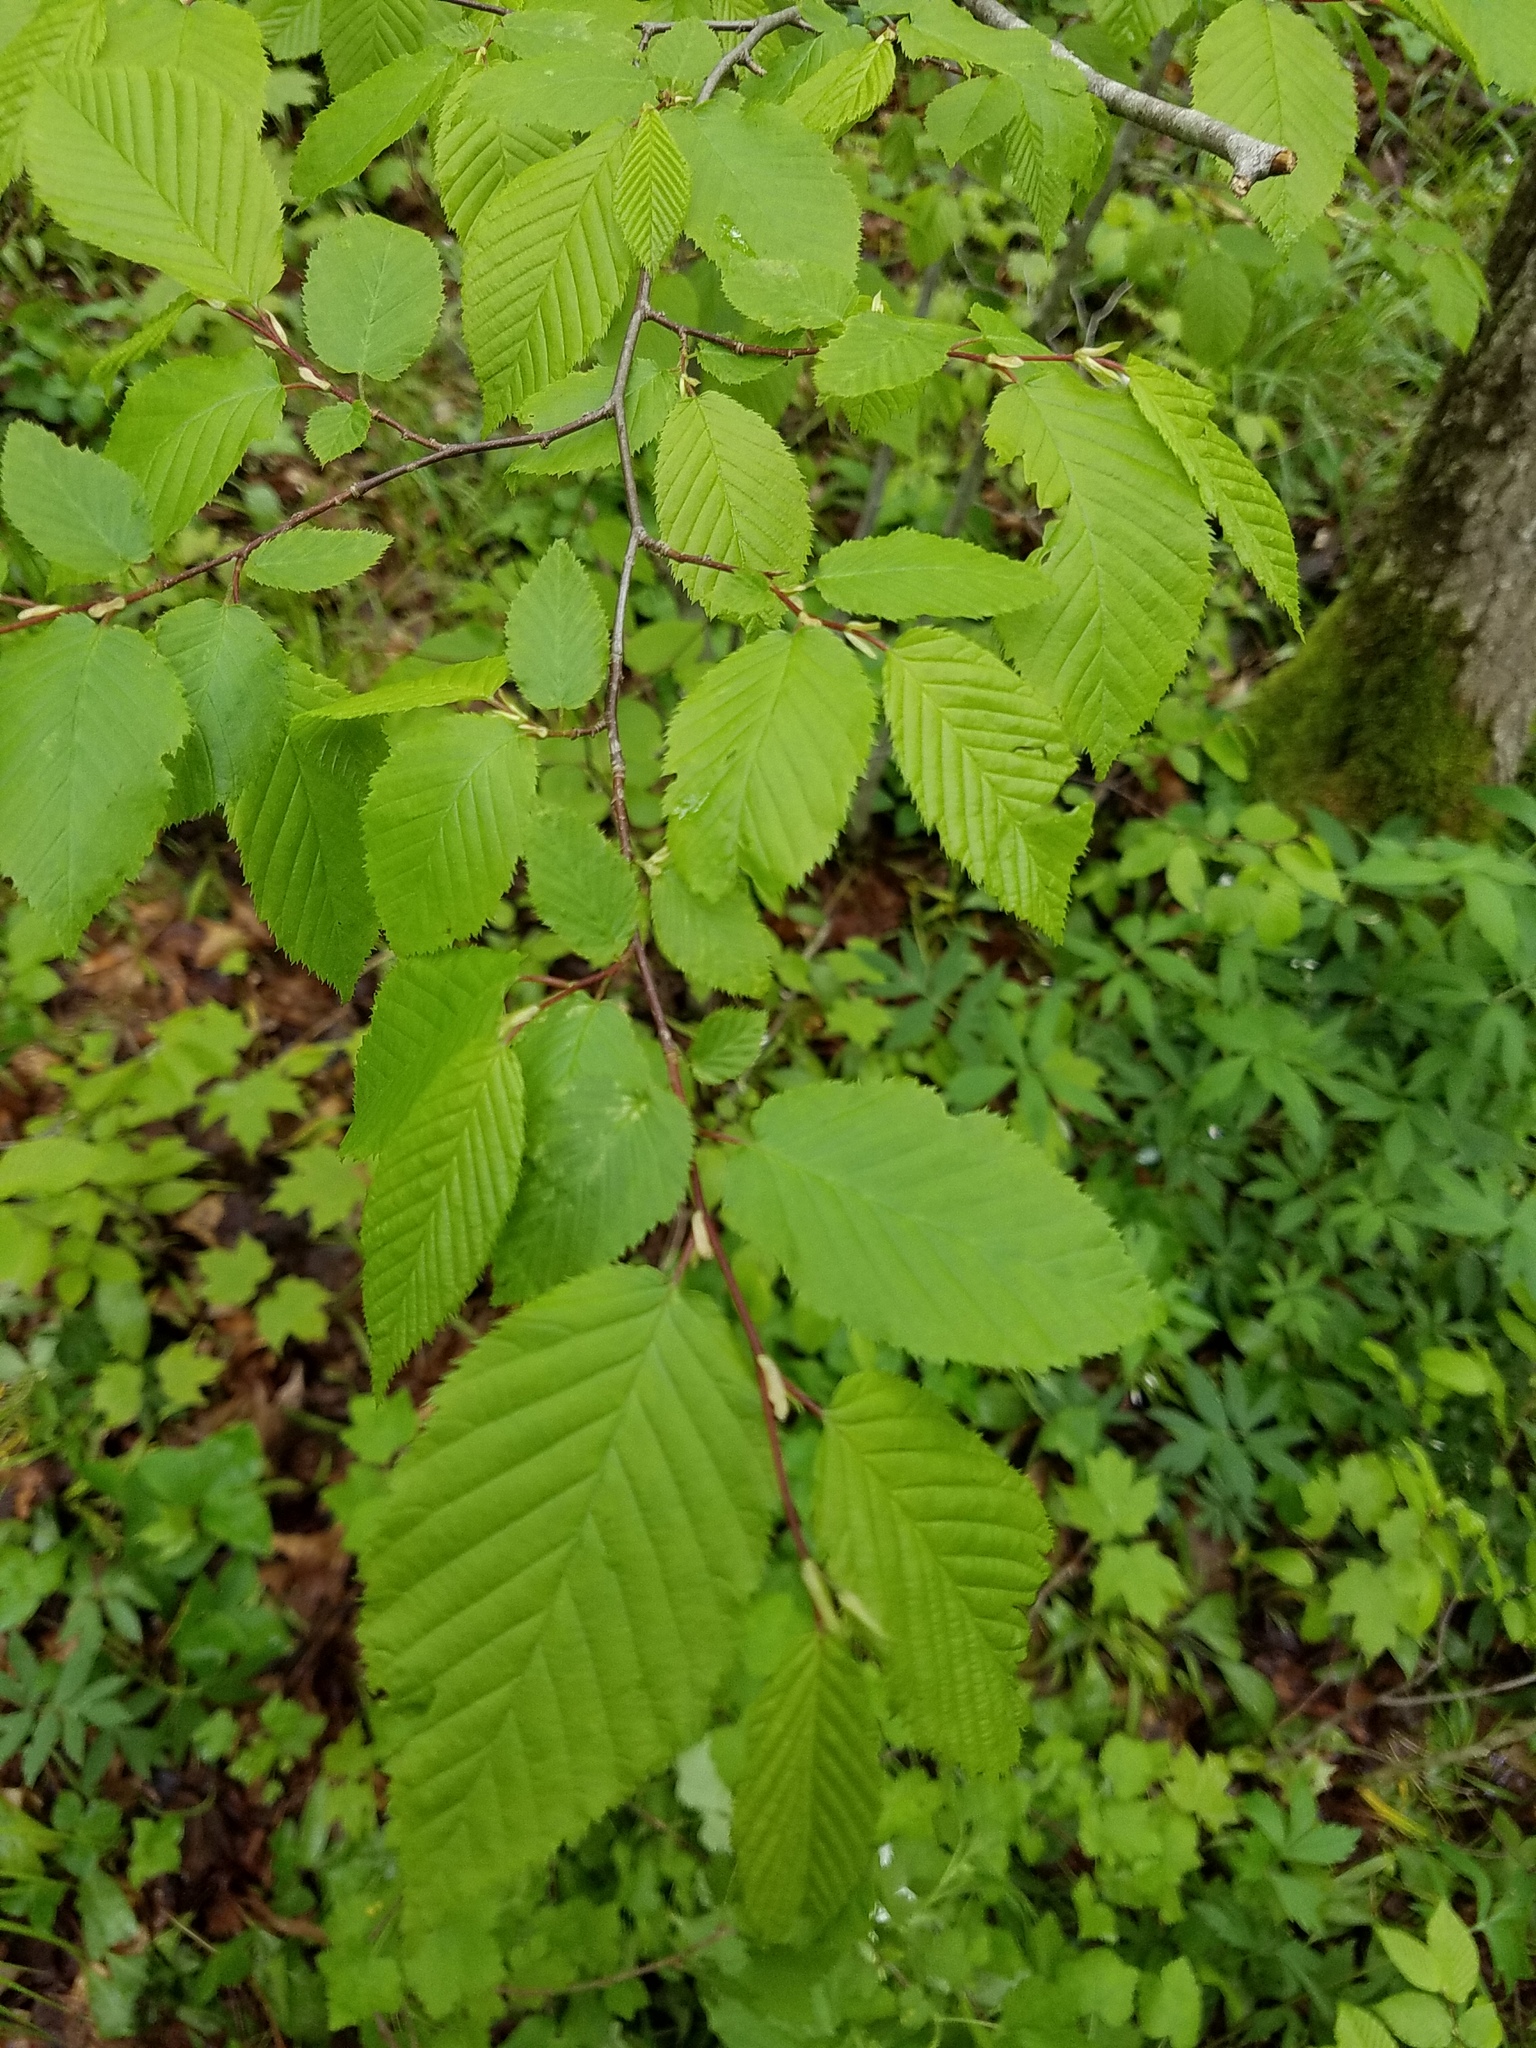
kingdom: Plantae
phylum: Tracheophyta
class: Magnoliopsida
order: Fagales
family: Betulaceae
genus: Carpinus
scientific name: Carpinus caroliniana
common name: American hornbeam
